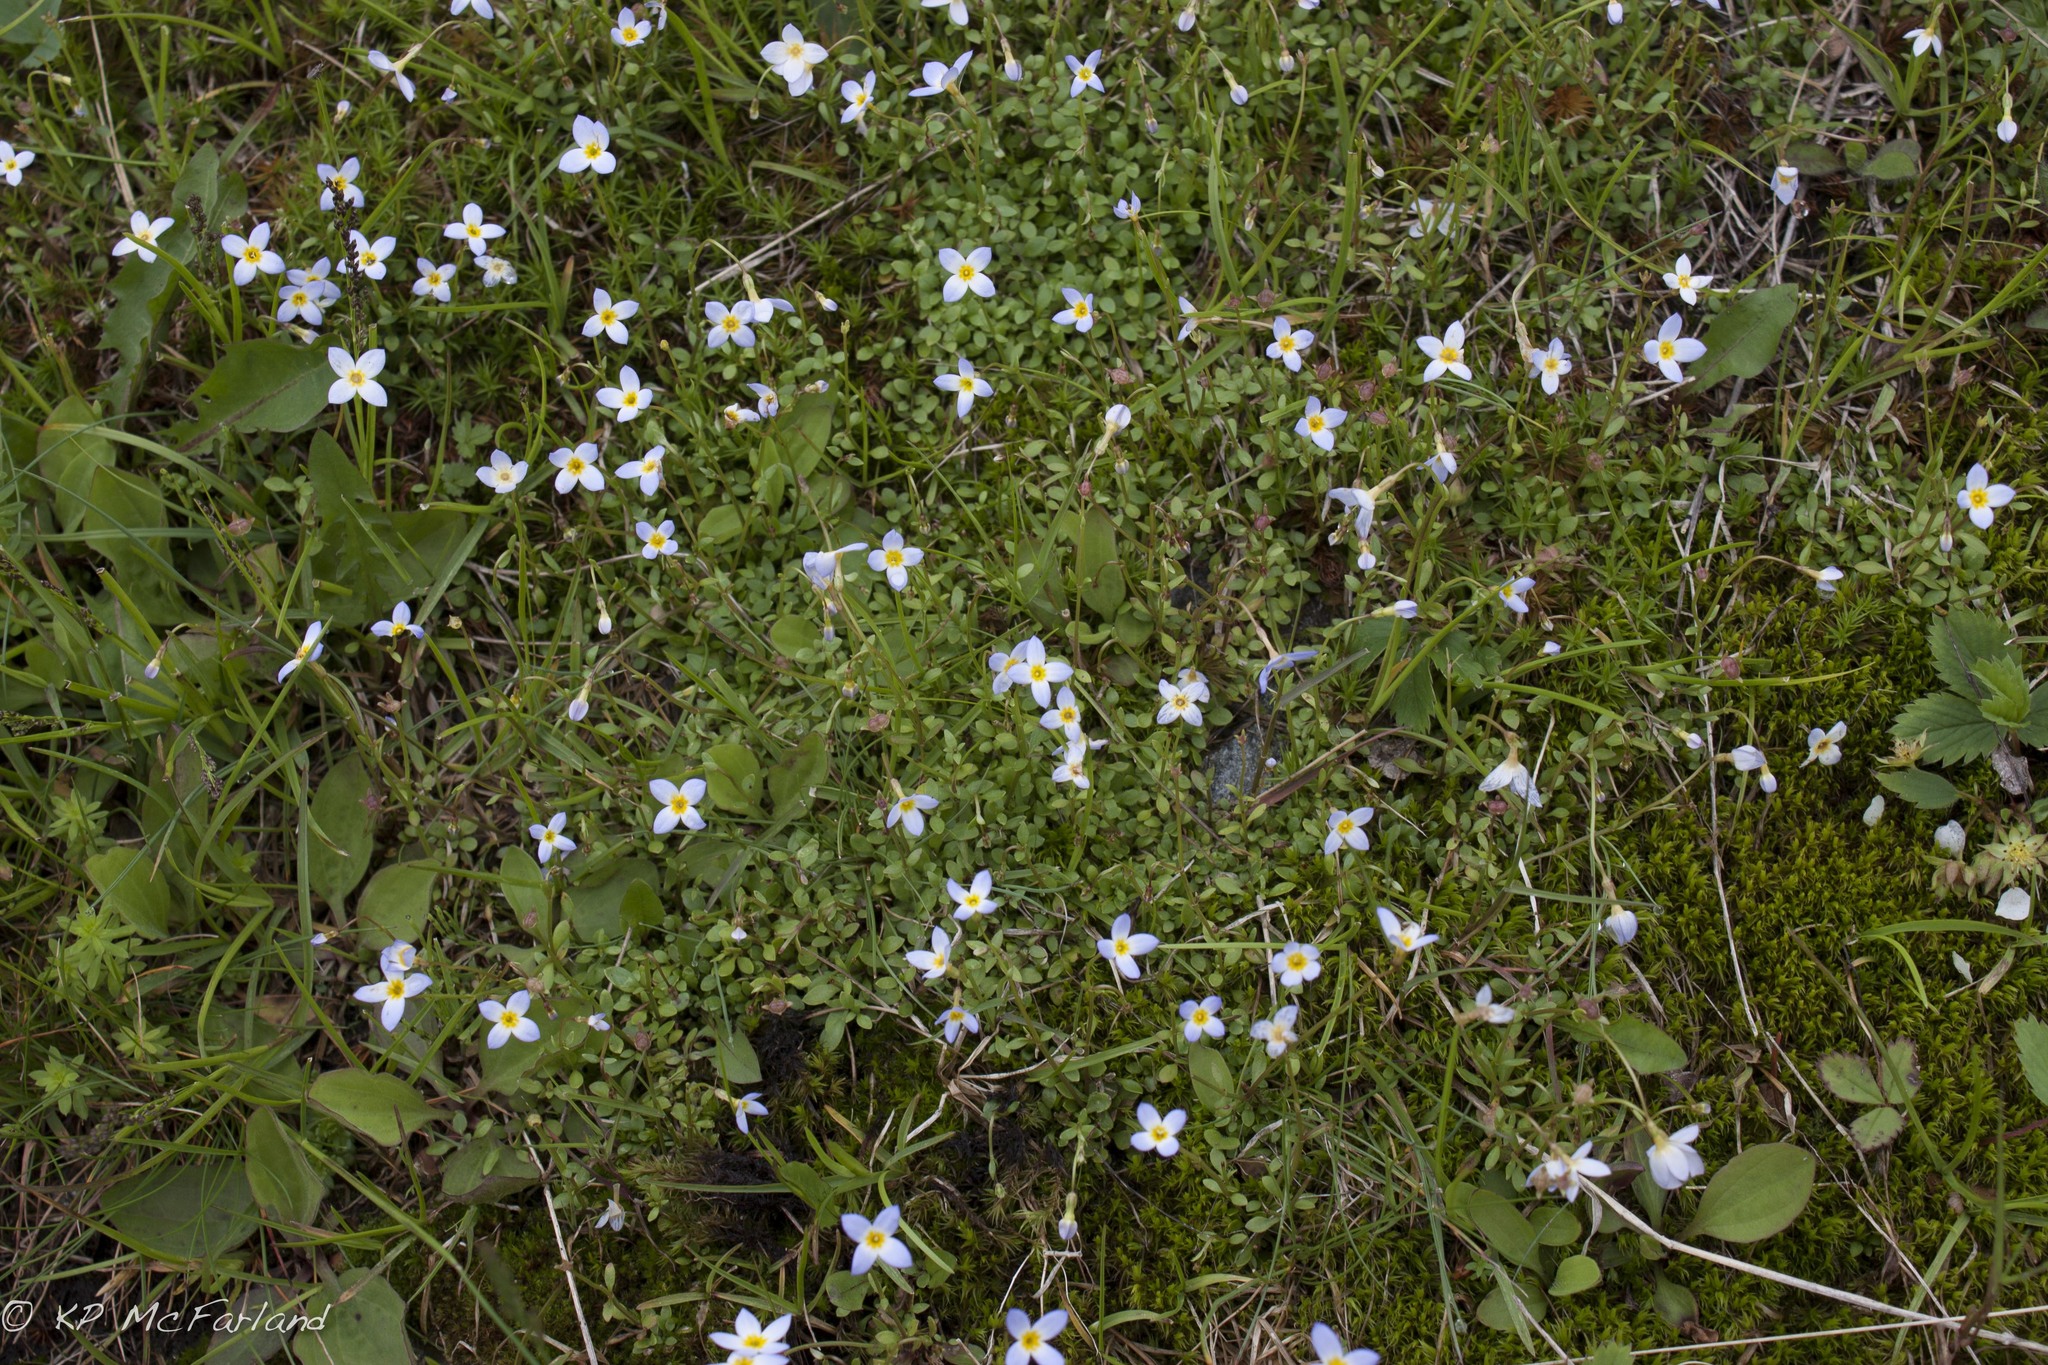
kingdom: Plantae
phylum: Tracheophyta
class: Magnoliopsida
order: Gentianales
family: Rubiaceae
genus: Houstonia
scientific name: Houstonia caerulea
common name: Bluets
